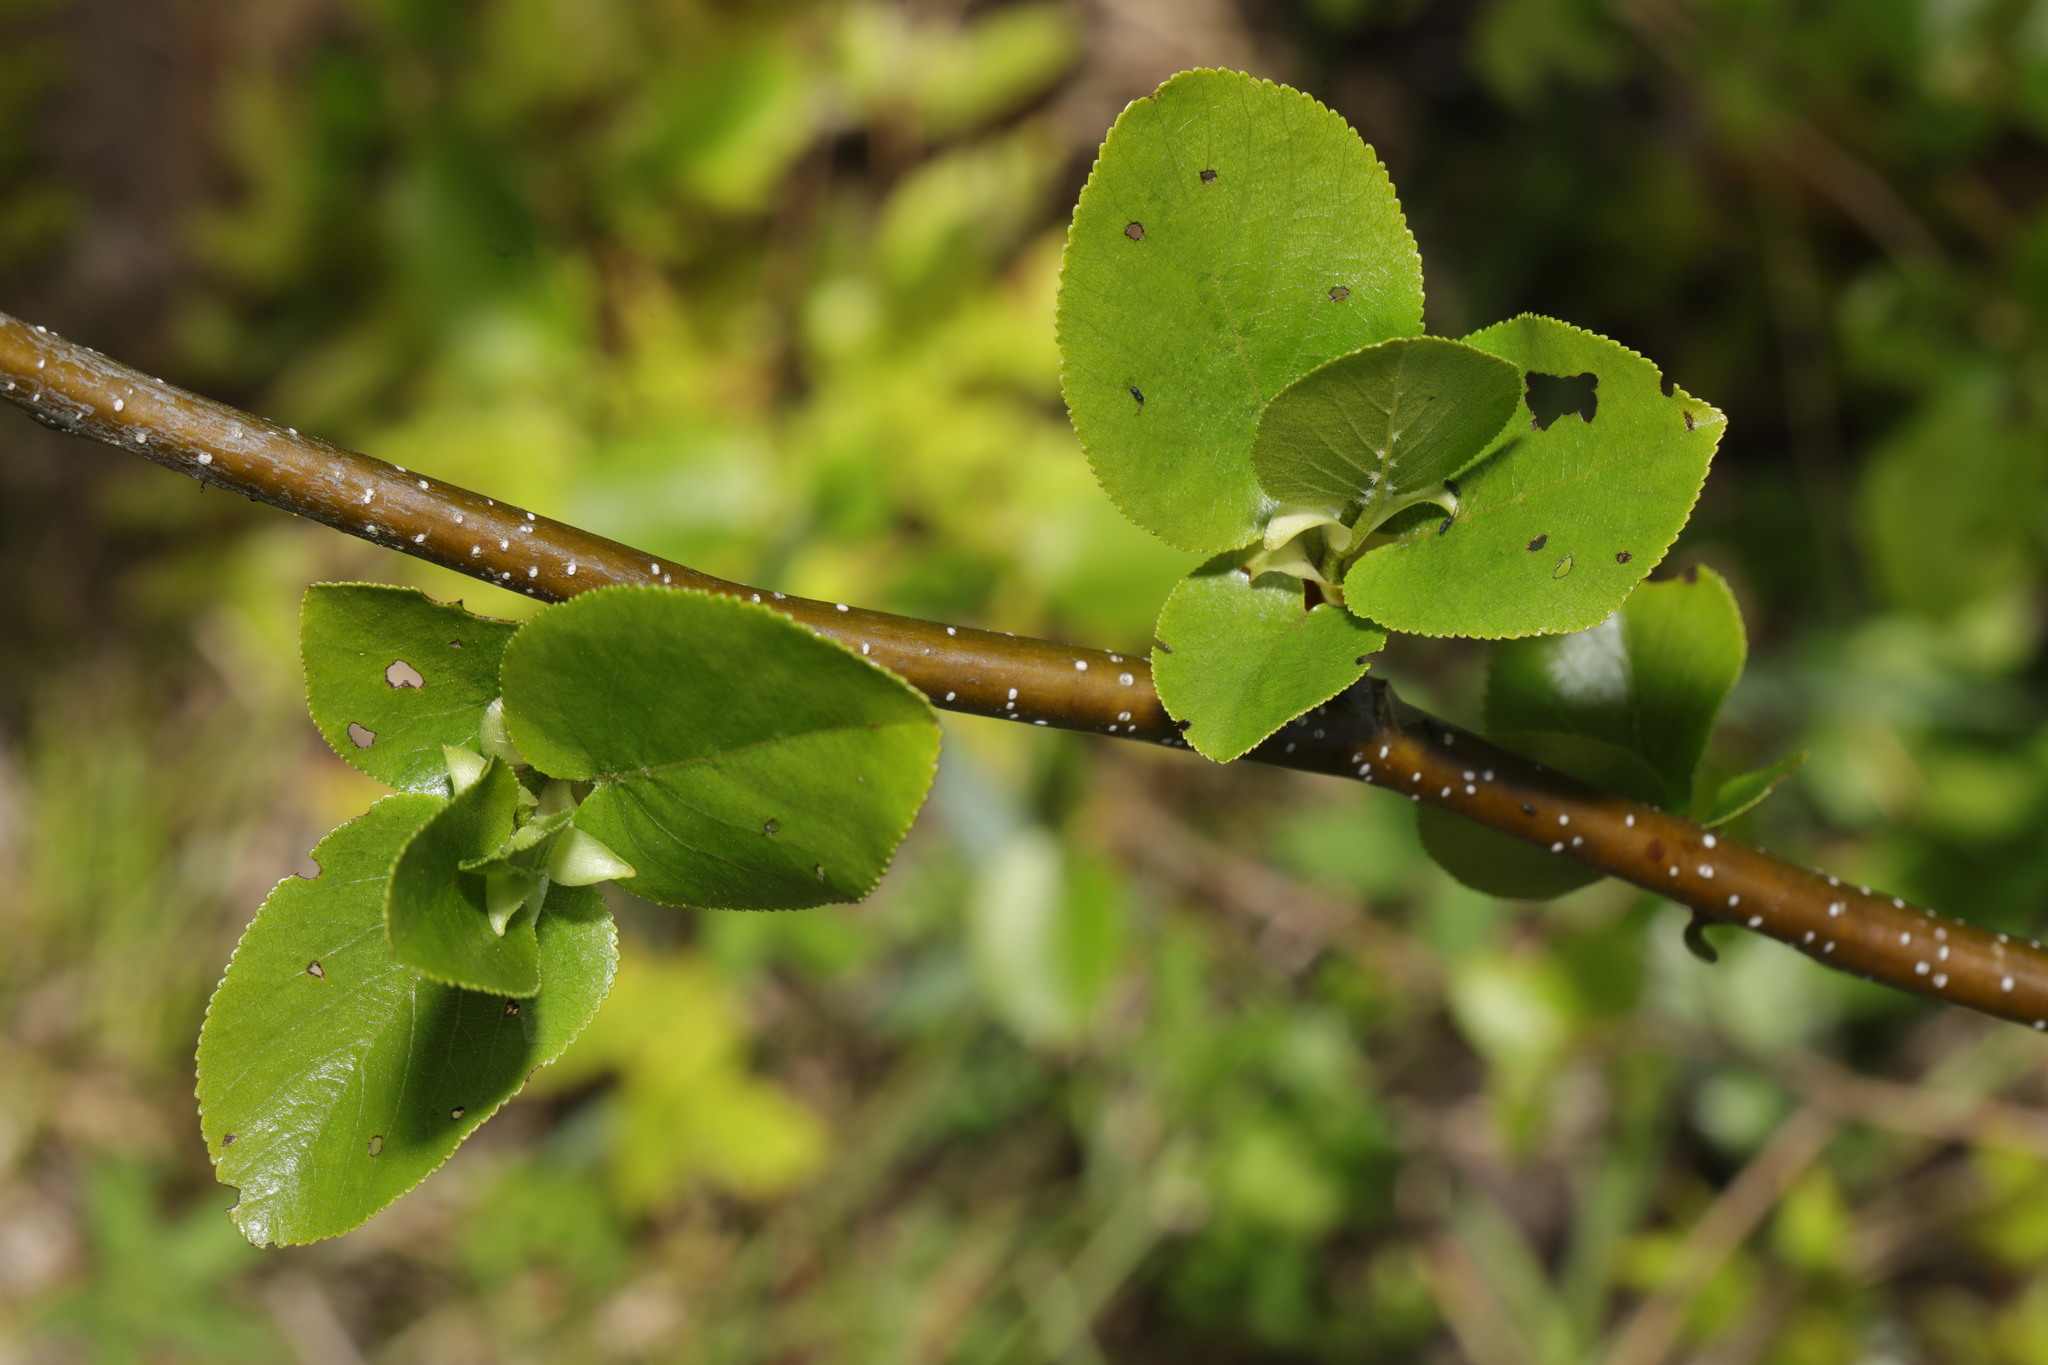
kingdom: Plantae
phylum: Tracheophyta
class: Magnoliopsida
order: Fagales
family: Betulaceae
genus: Alnus
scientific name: Alnus cordata
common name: Italian alder
